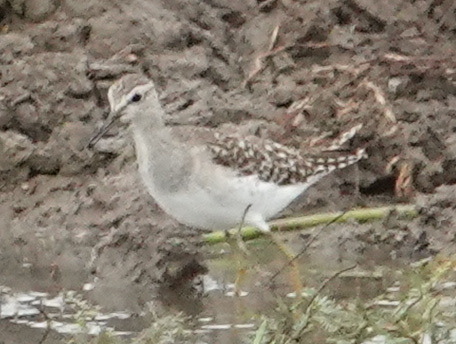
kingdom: Animalia
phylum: Chordata
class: Aves
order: Charadriiformes
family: Scolopacidae
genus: Tringa
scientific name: Tringa glareola
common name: Wood sandpiper
